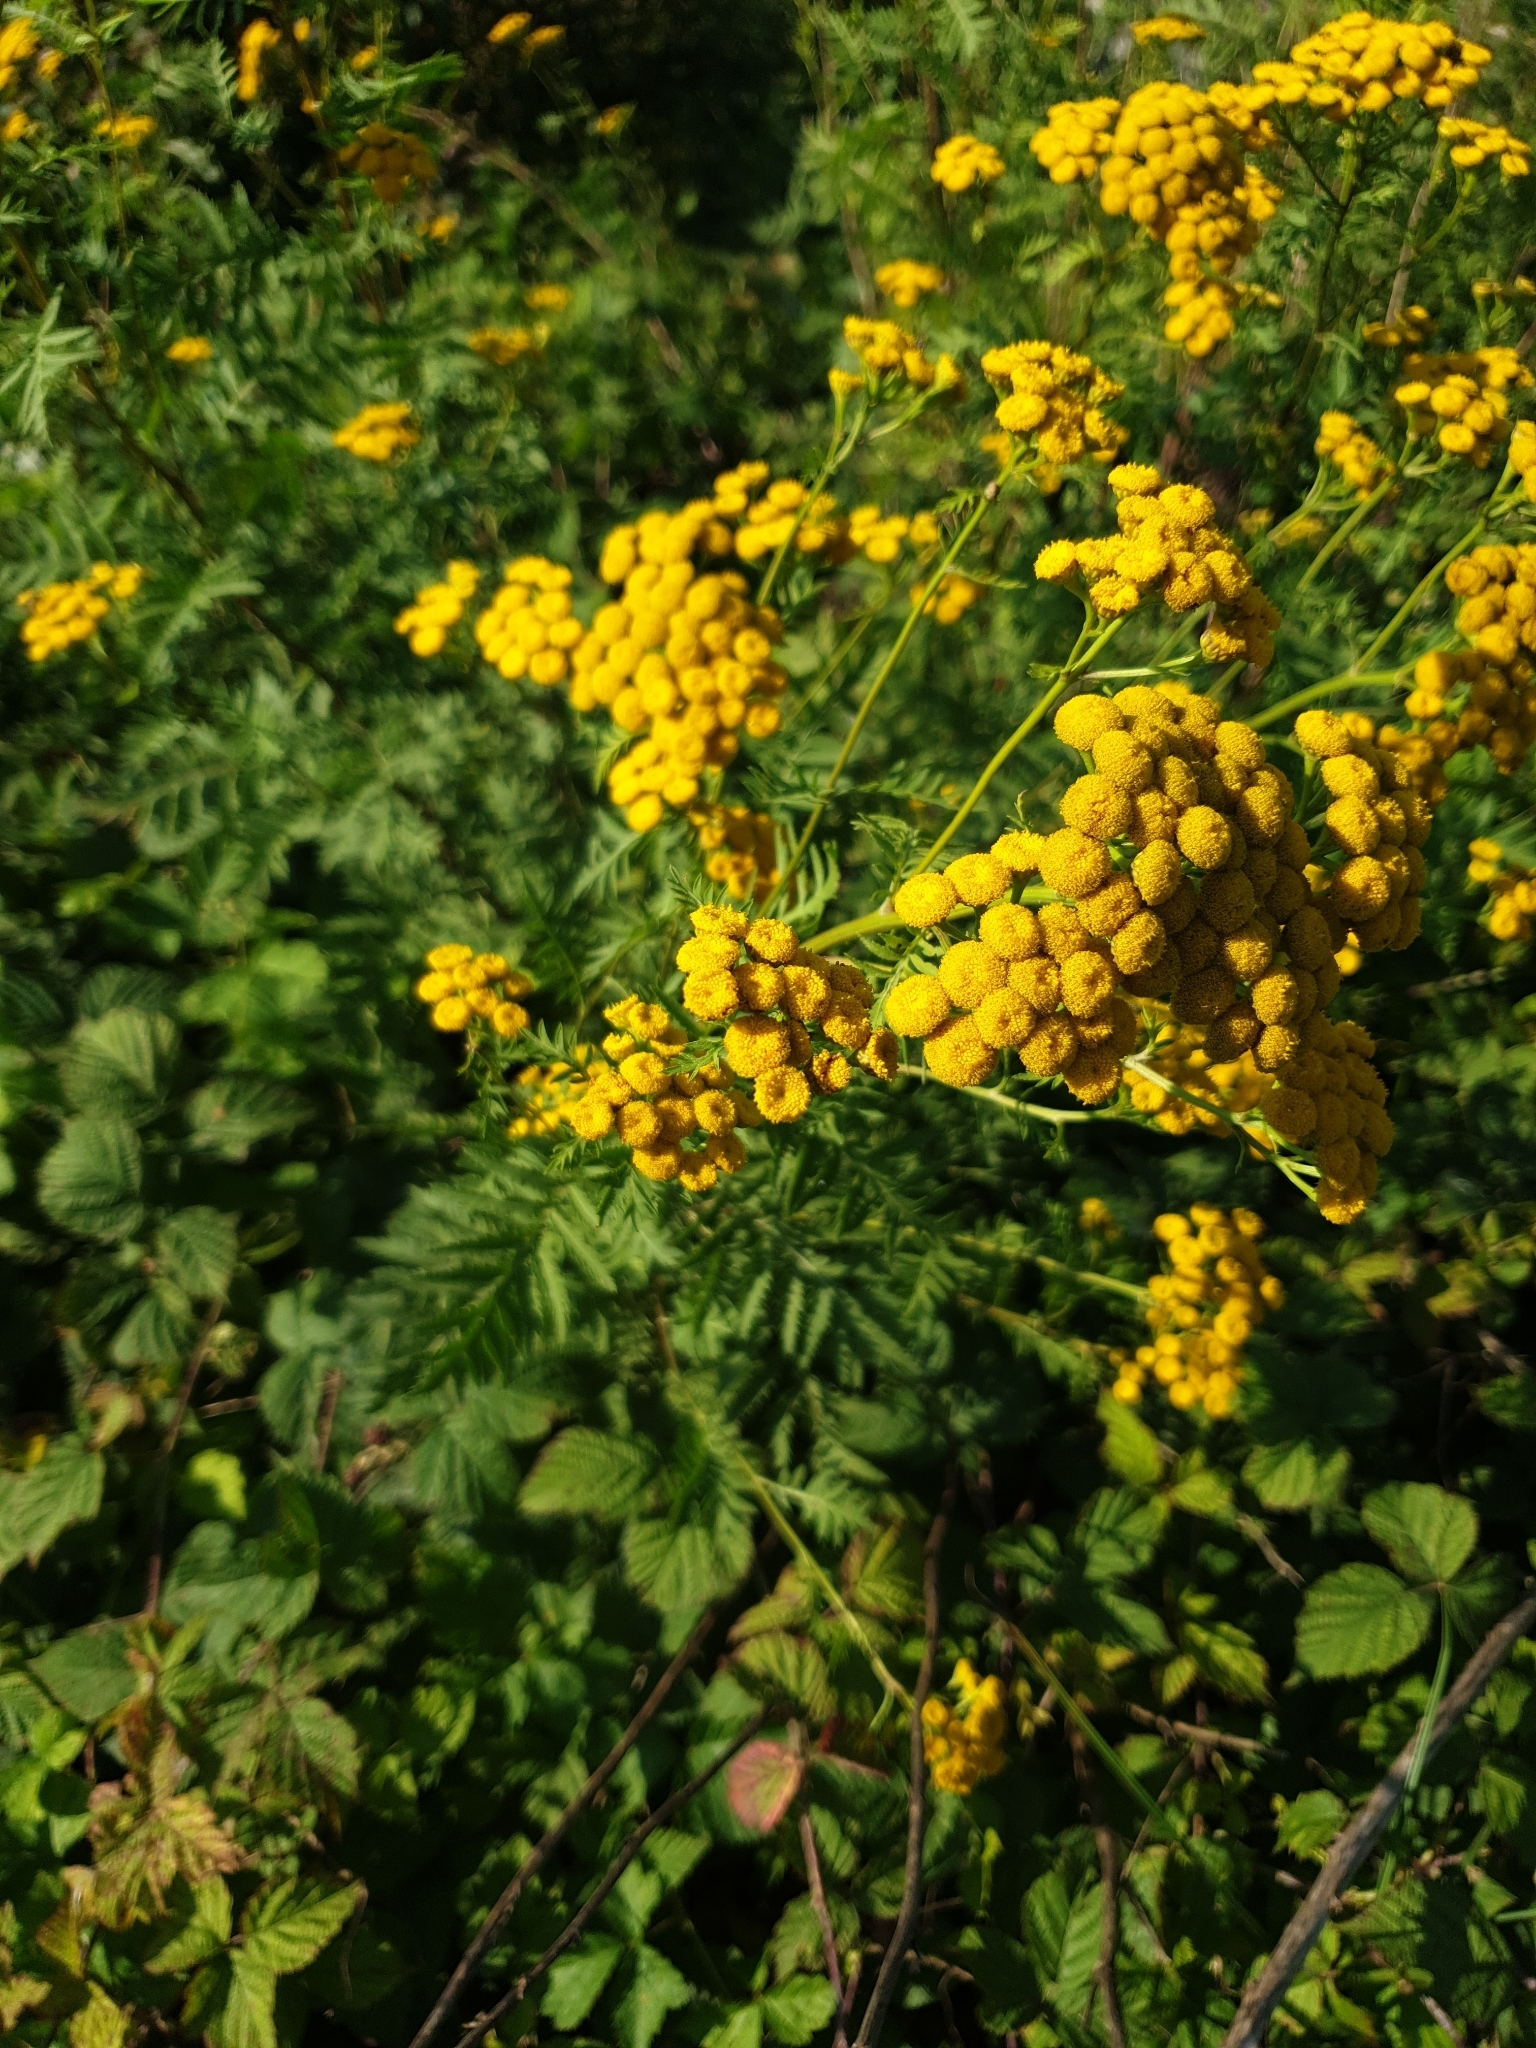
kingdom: Plantae
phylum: Tracheophyta
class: Magnoliopsida
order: Asterales
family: Asteraceae
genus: Tanacetum
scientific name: Tanacetum vulgare
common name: Common tansy
